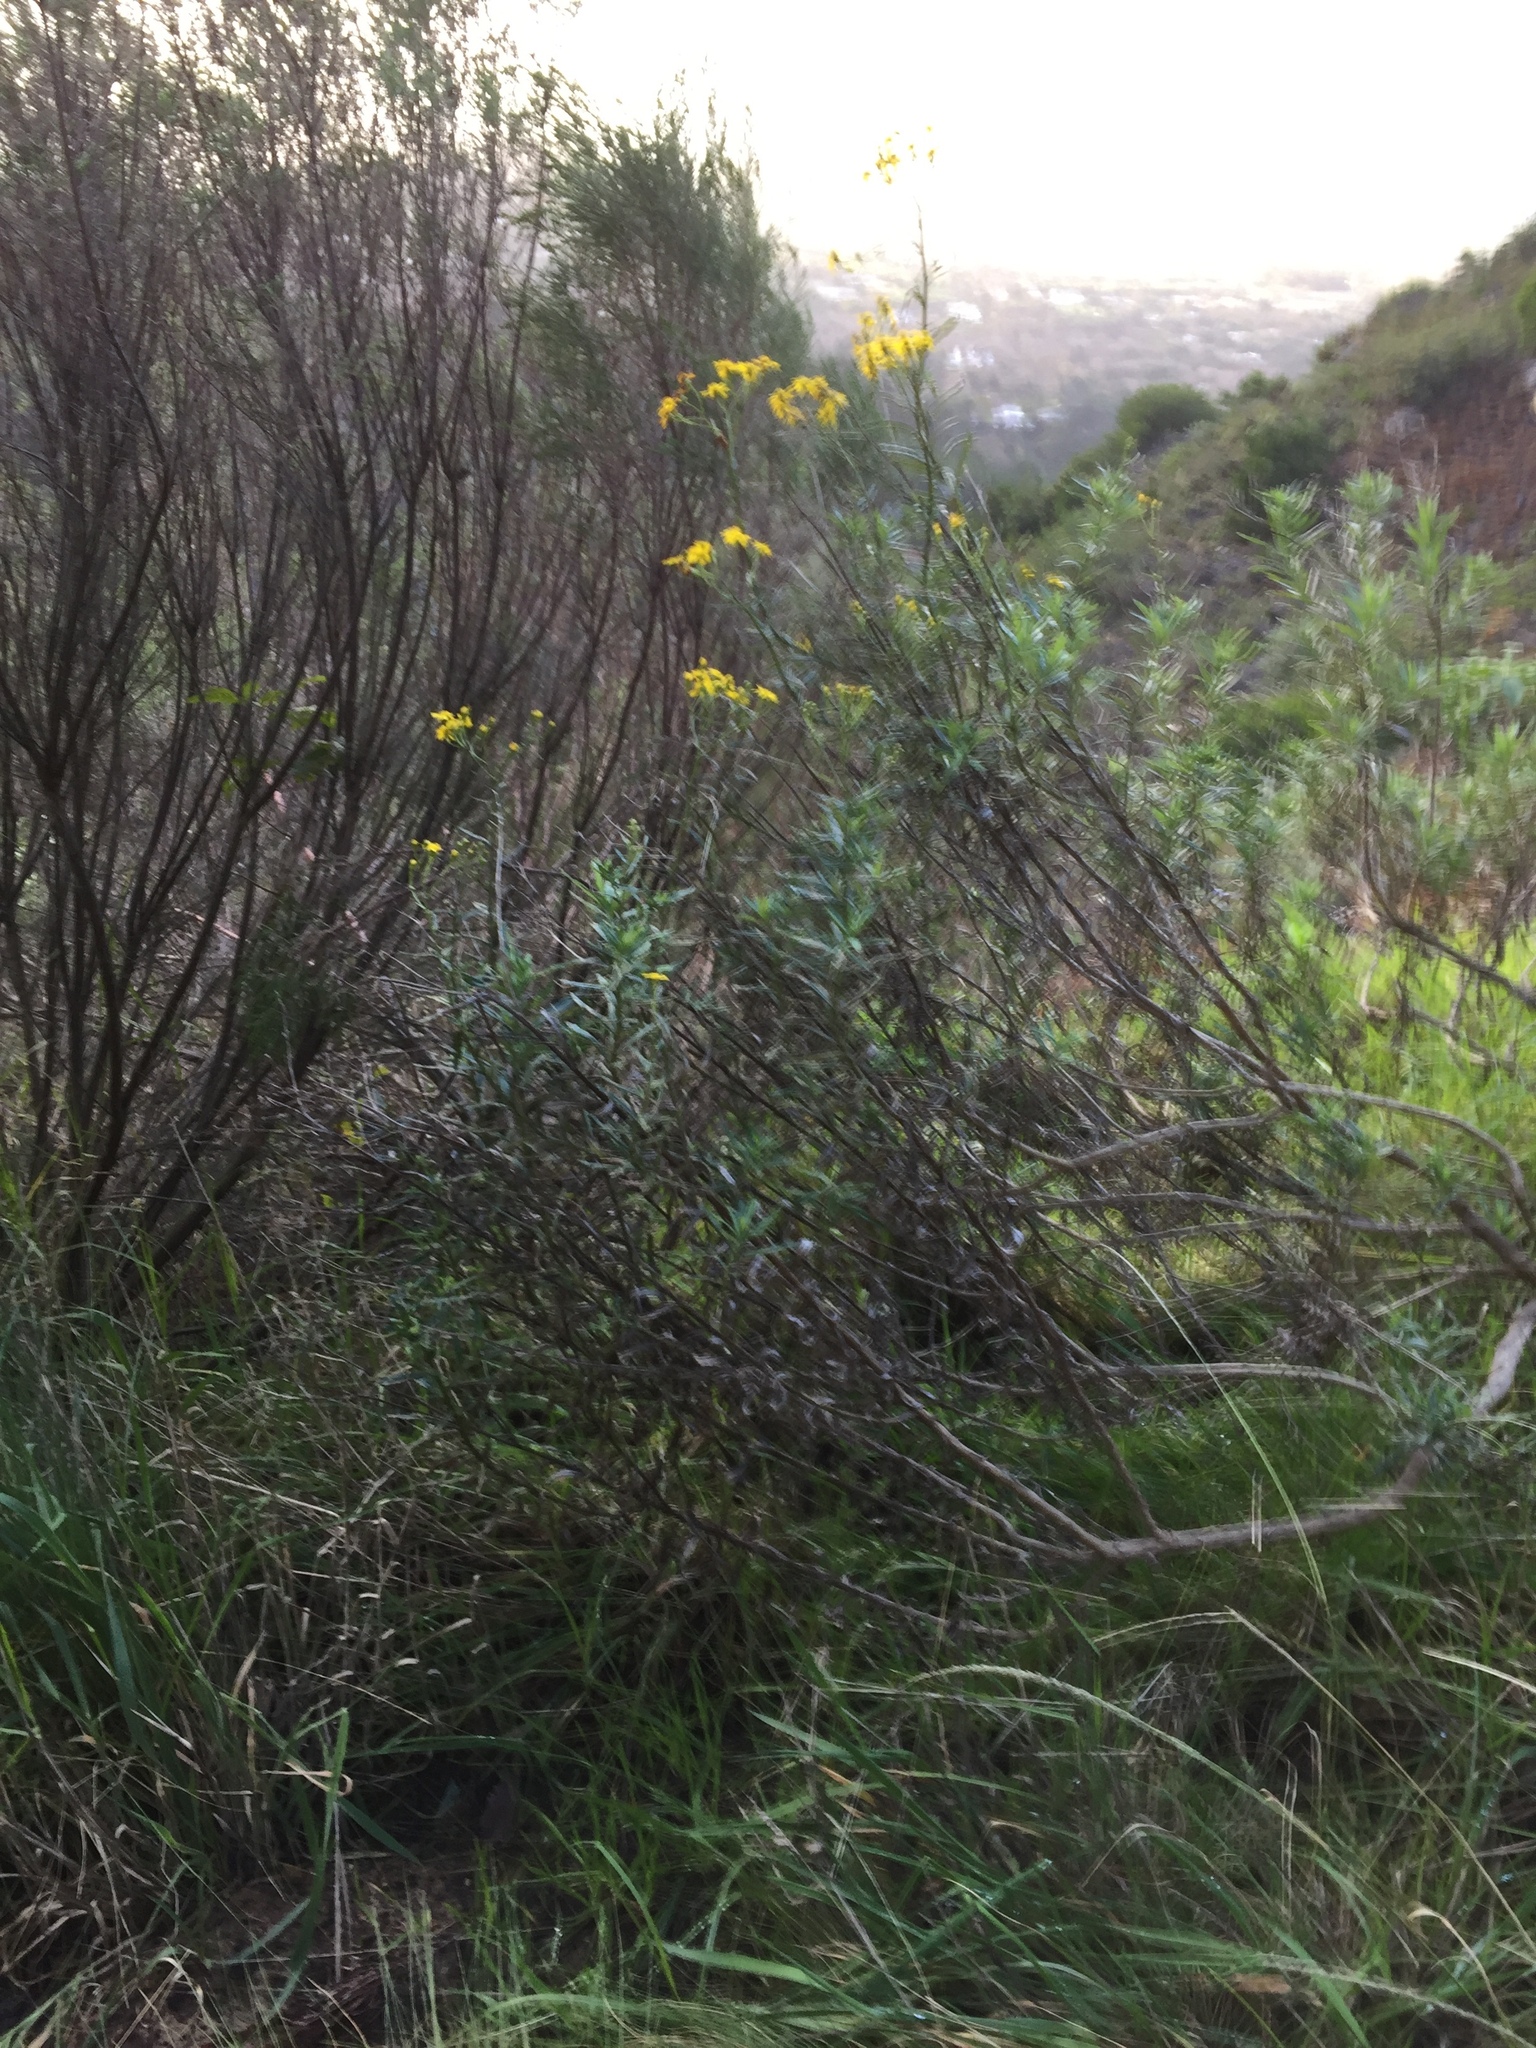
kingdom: Plantae
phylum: Tracheophyta
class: Magnoliopsida
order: Asterales
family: Asteraceae
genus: Senecio
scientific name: Senecio pterophorus
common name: Shoddy ragwort
